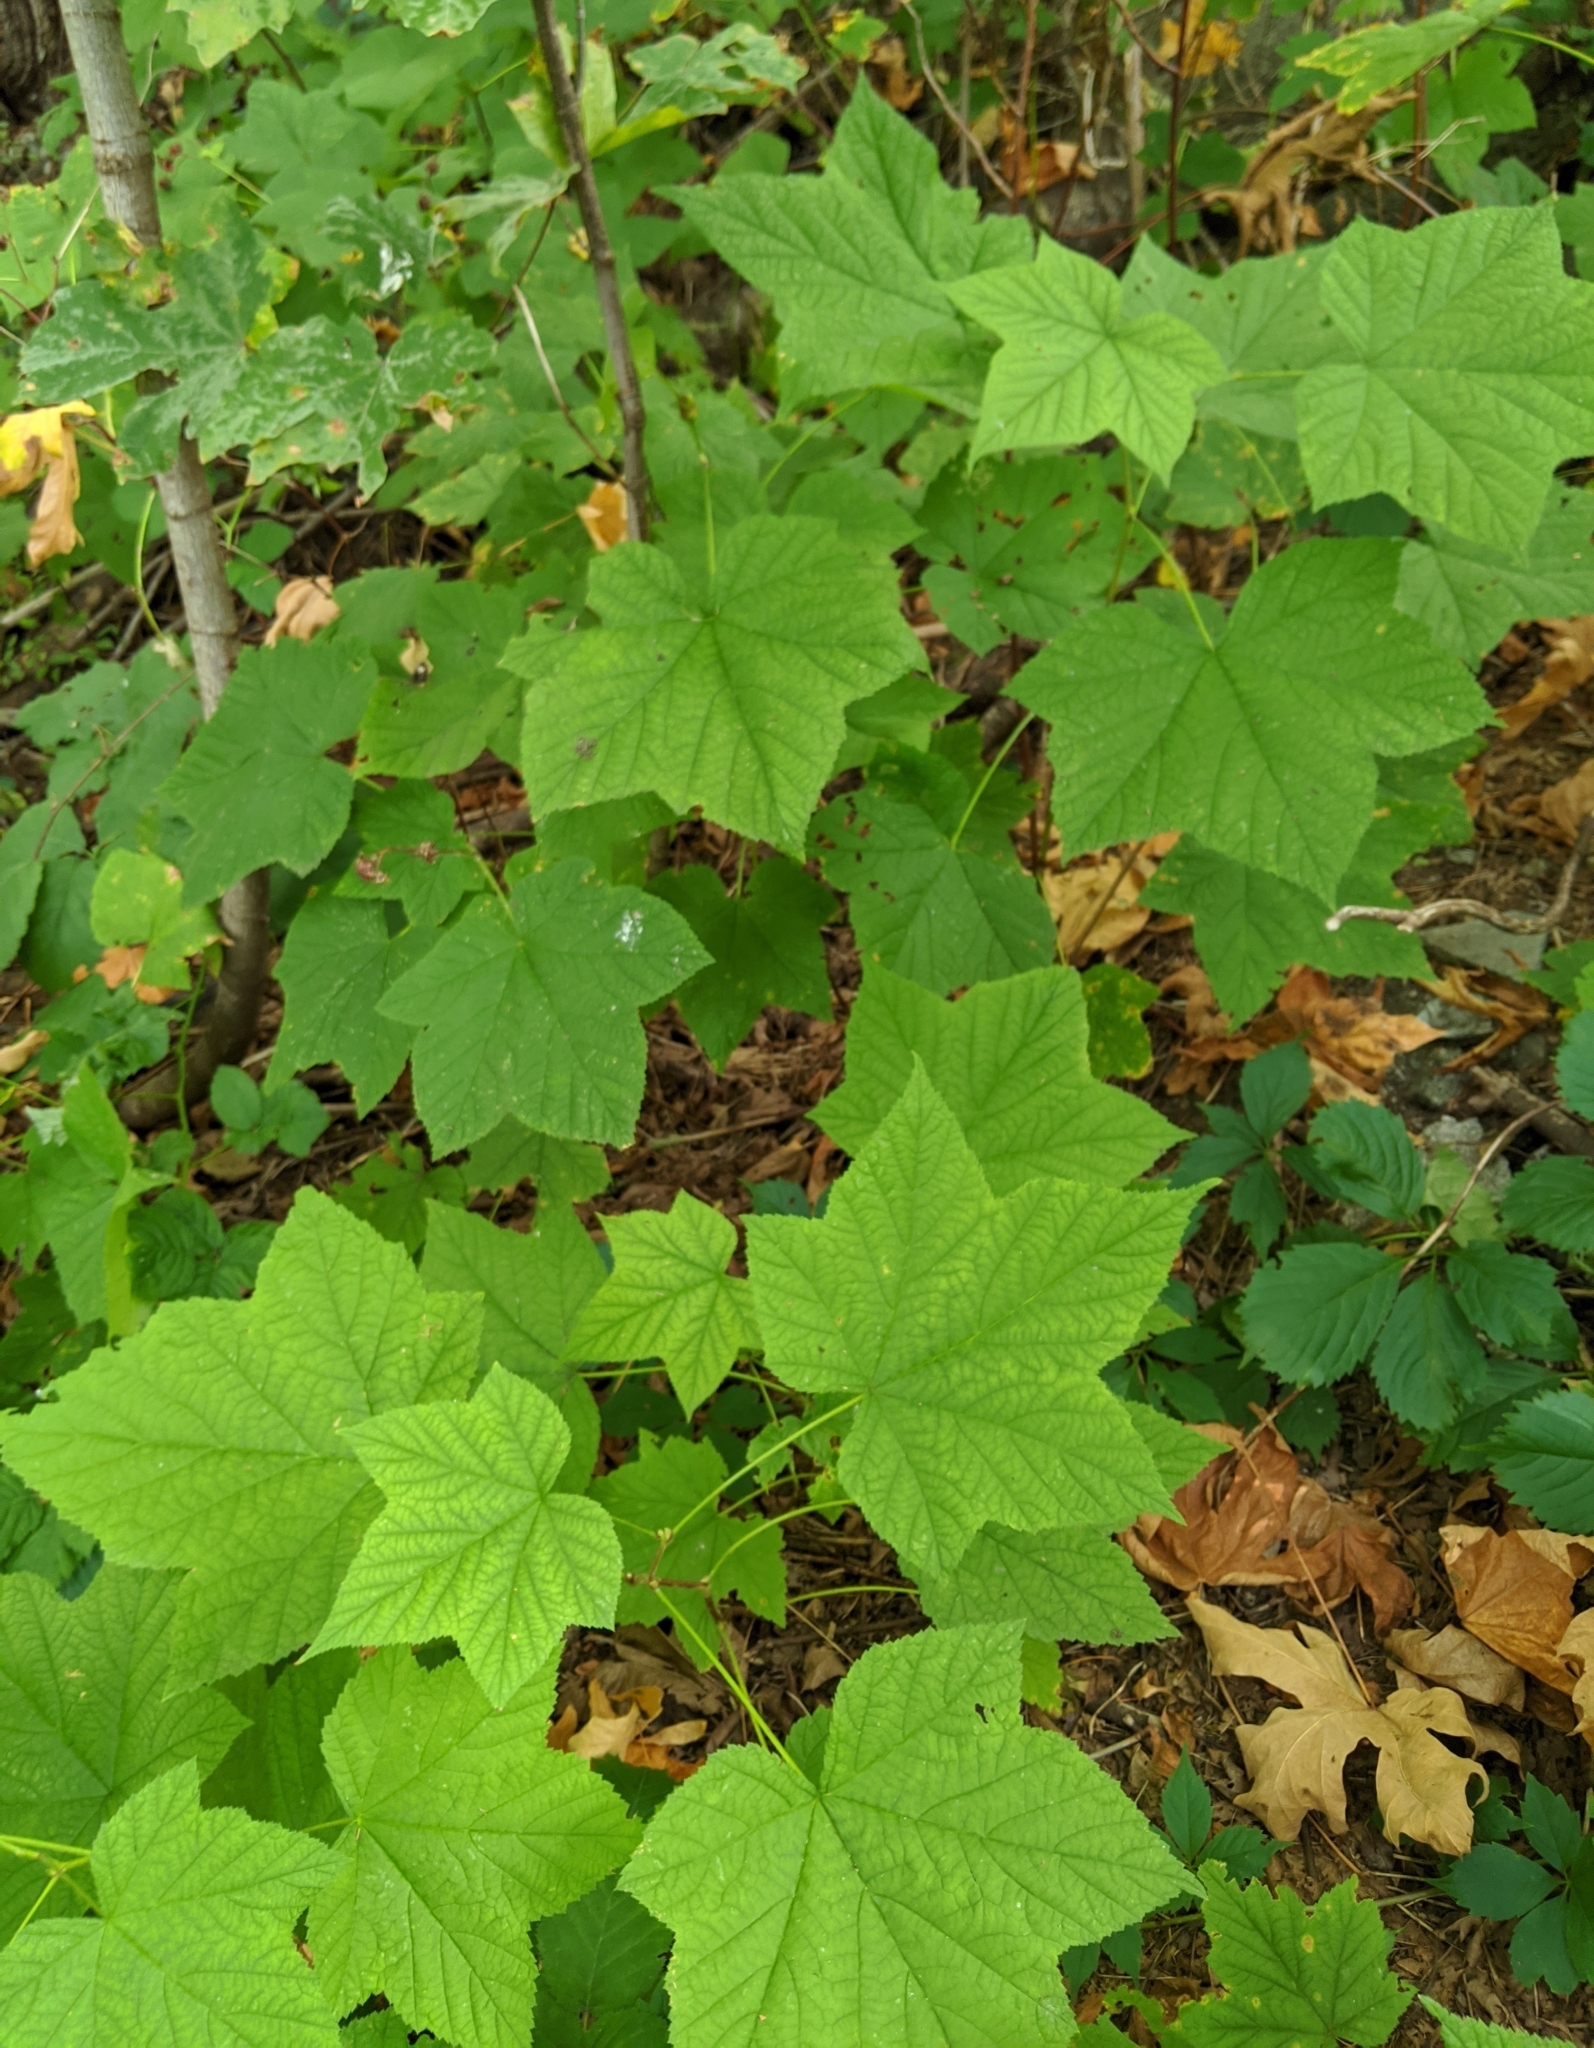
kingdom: Plantae
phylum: Tracheophyta
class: Magnoliopsida
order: Rosales
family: Rosaceae
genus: Rubus
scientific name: Rubus parviflorus
